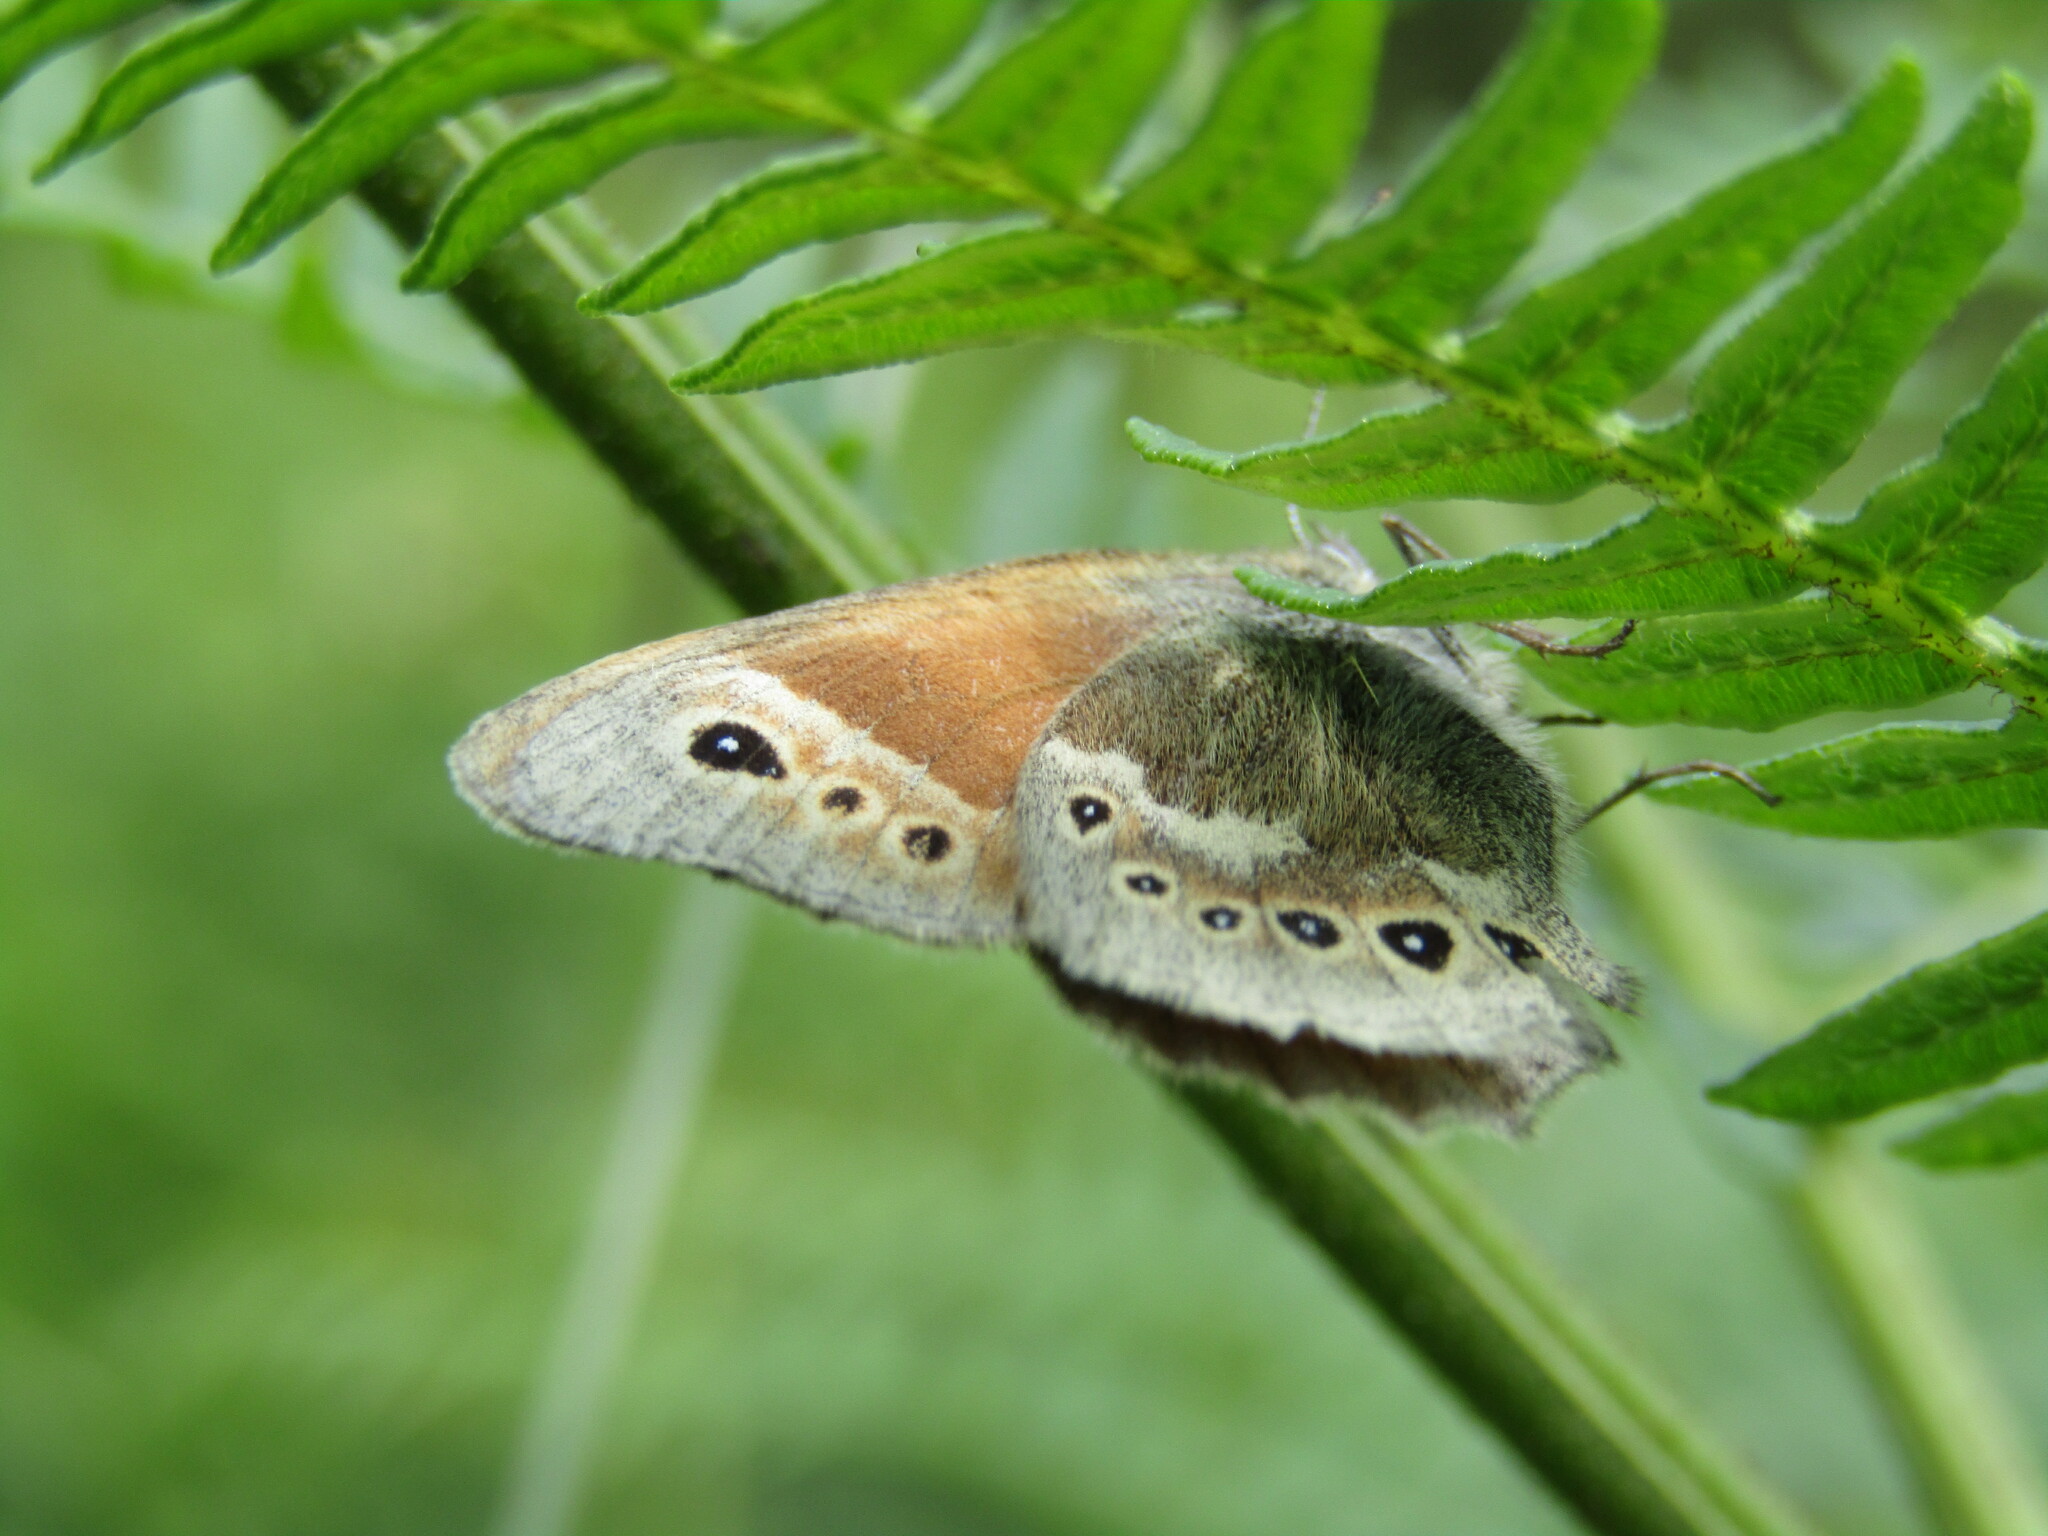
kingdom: Animalia
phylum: Arthropoda
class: Insecta
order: Lepidoptera
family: Nymphalidae
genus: Coenonympha
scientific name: Coenonympha tullia
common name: Large heath
